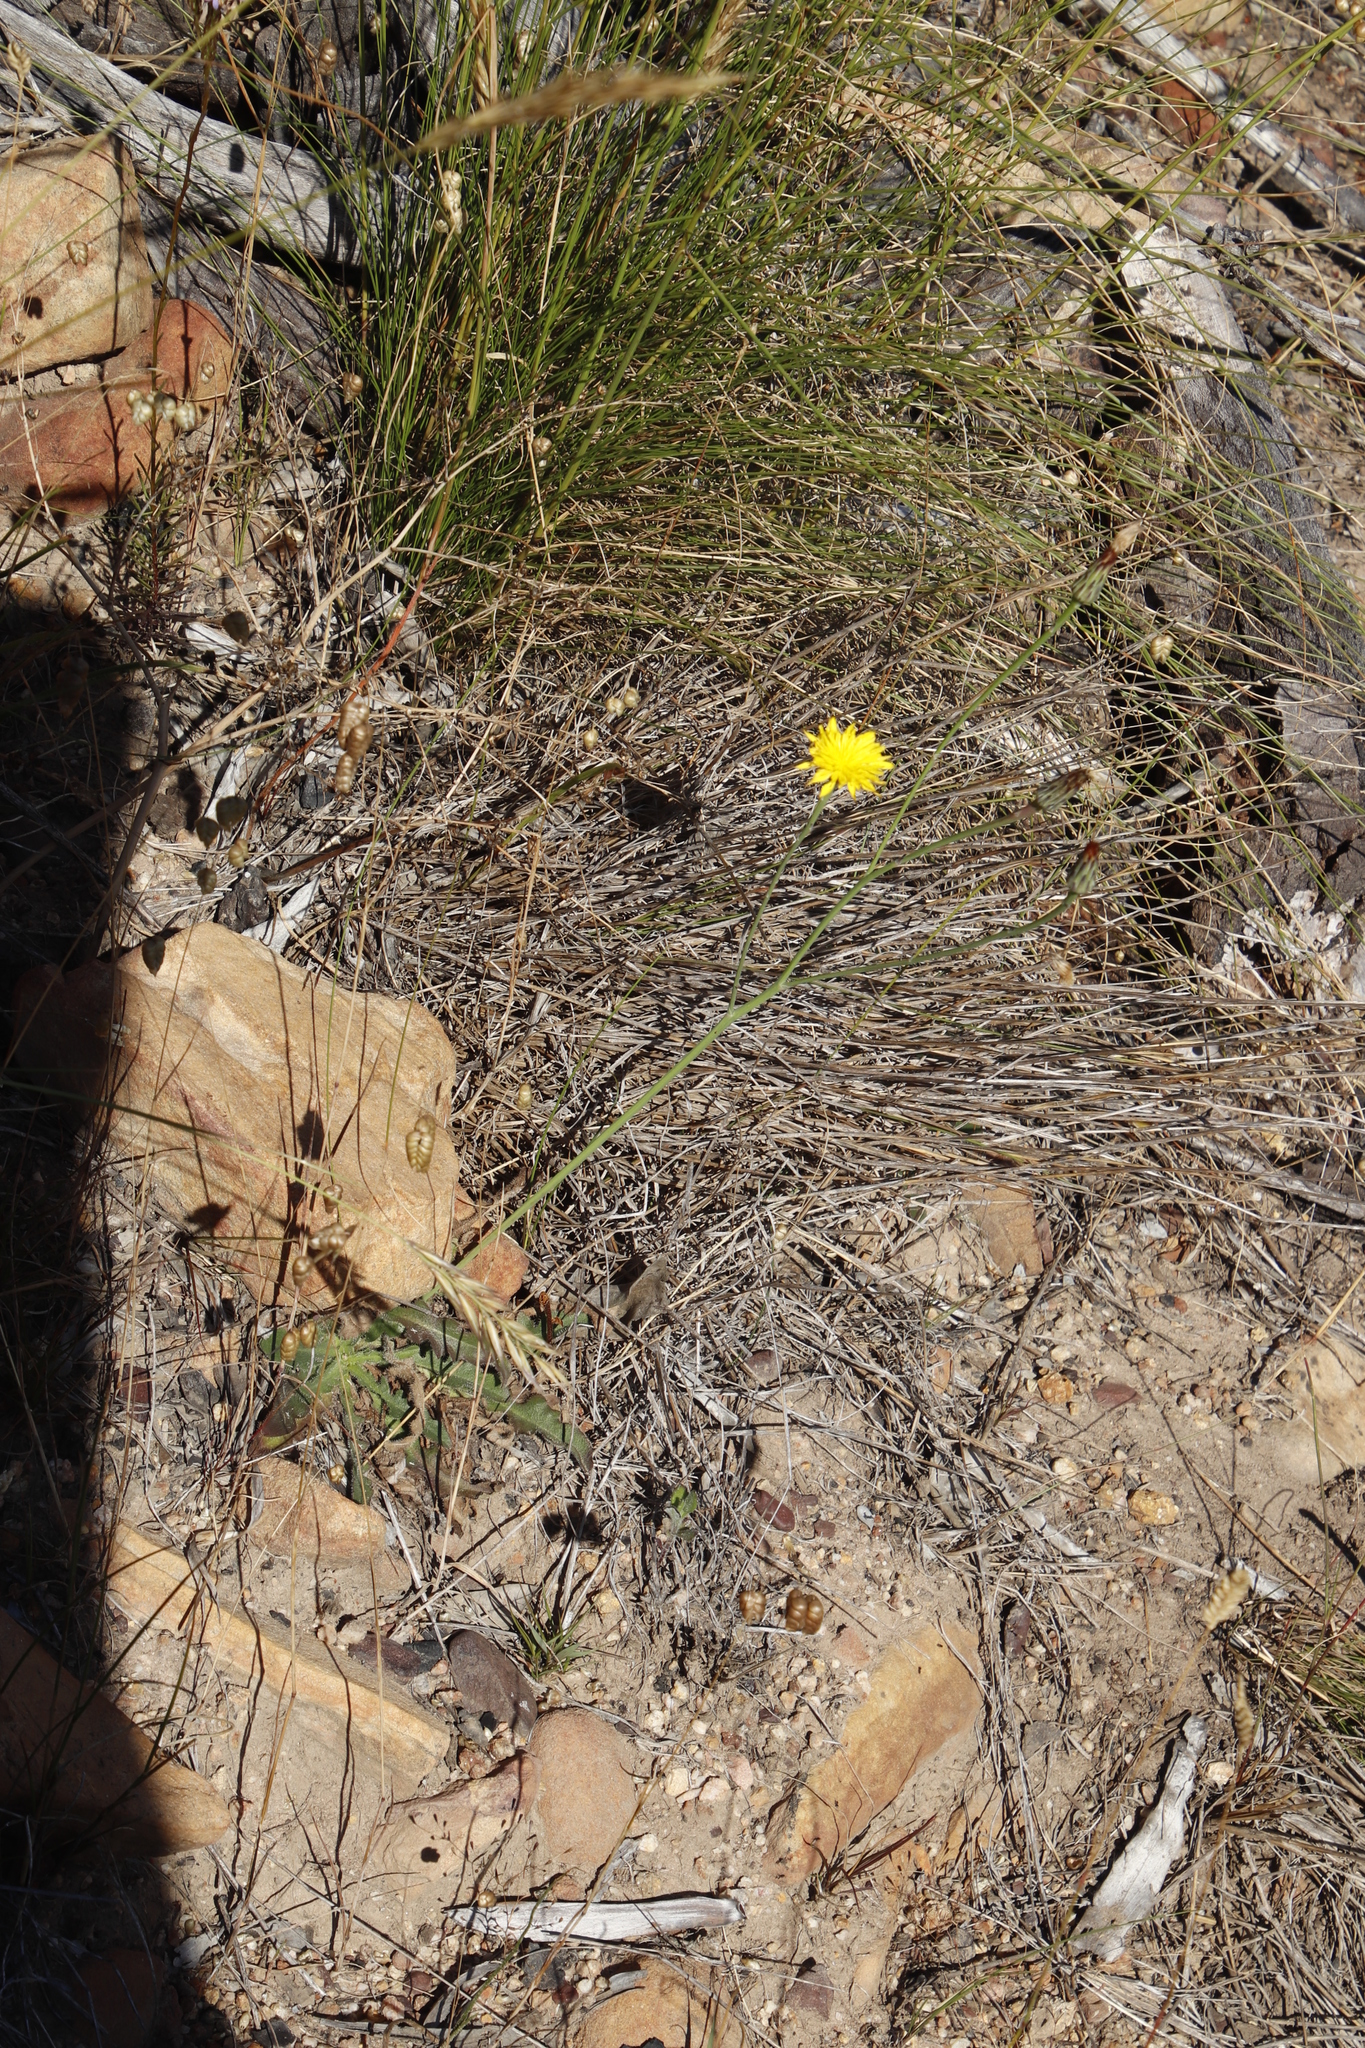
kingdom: Plantae
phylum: Tracheophyta
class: Magnoliopsida
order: Asterales
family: Asteraceae
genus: Hypochaeris
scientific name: Hypochaeris radicata
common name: Flatweed
